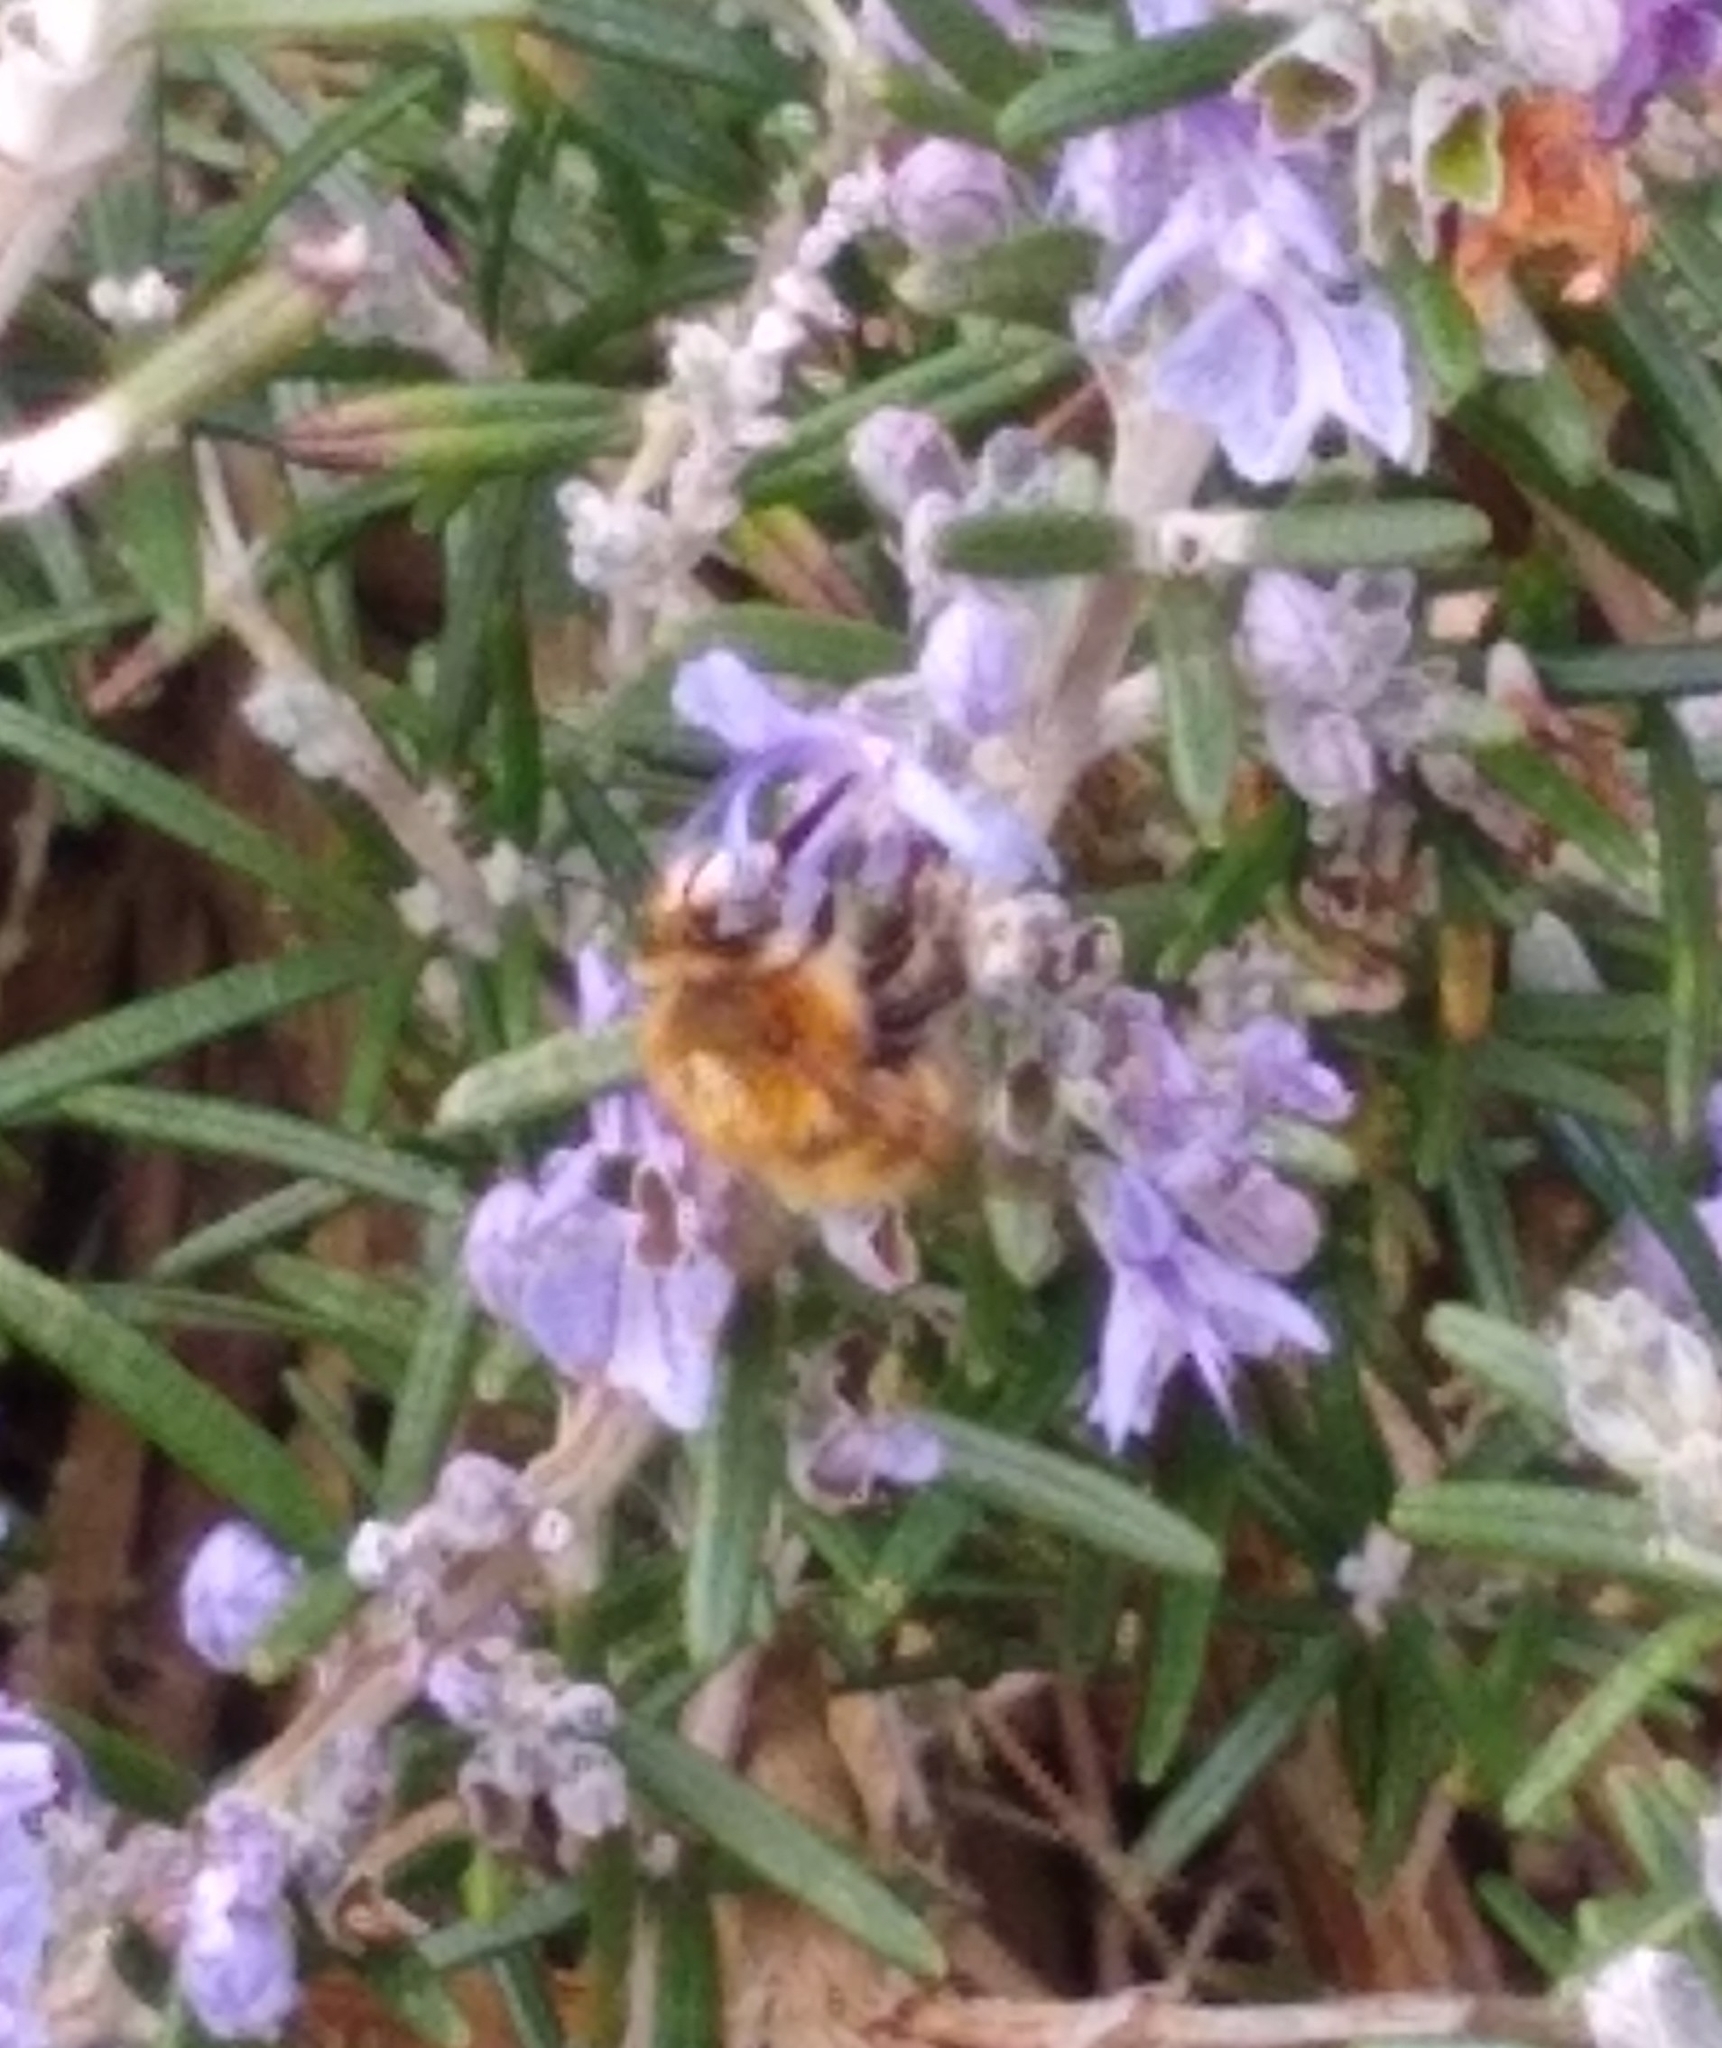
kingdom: Animalia
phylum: Arthropoda
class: Insecta
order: Hymenoptera
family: Apidae
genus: Anthophora
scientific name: Anthophora plumipes
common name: Hairy-footed flower bee
